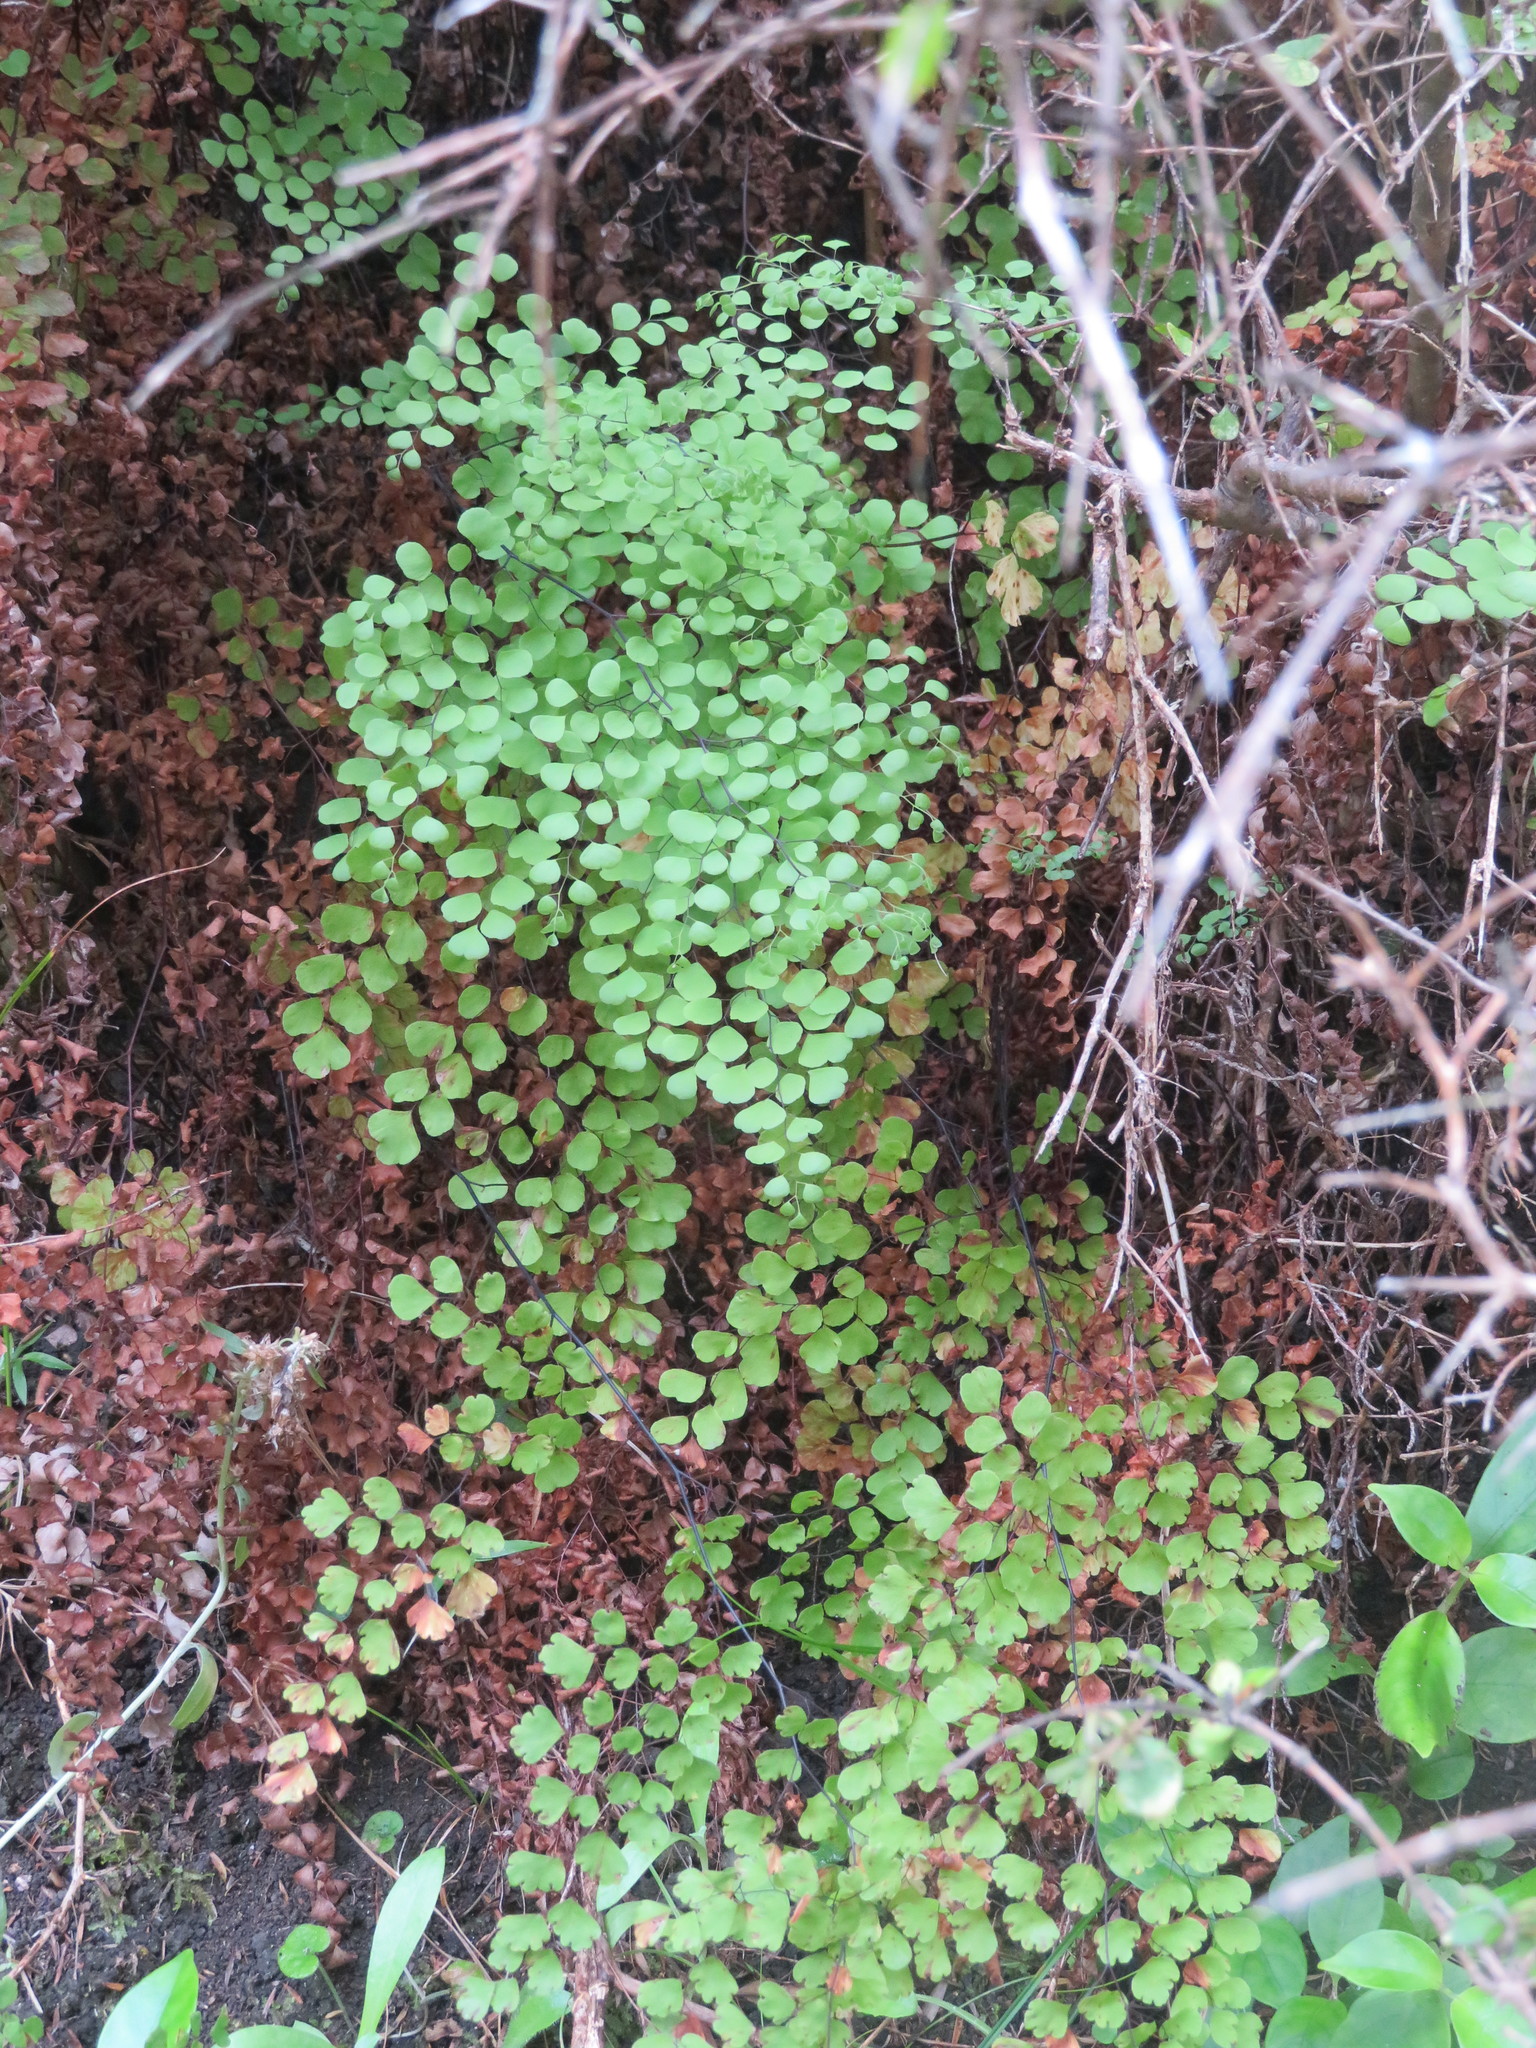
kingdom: Plantae
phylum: Tracheophyta
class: Polypodiopsida
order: Polypodiales
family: Pteridaceae
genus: Adiantum
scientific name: Adiantum aethiopicum
